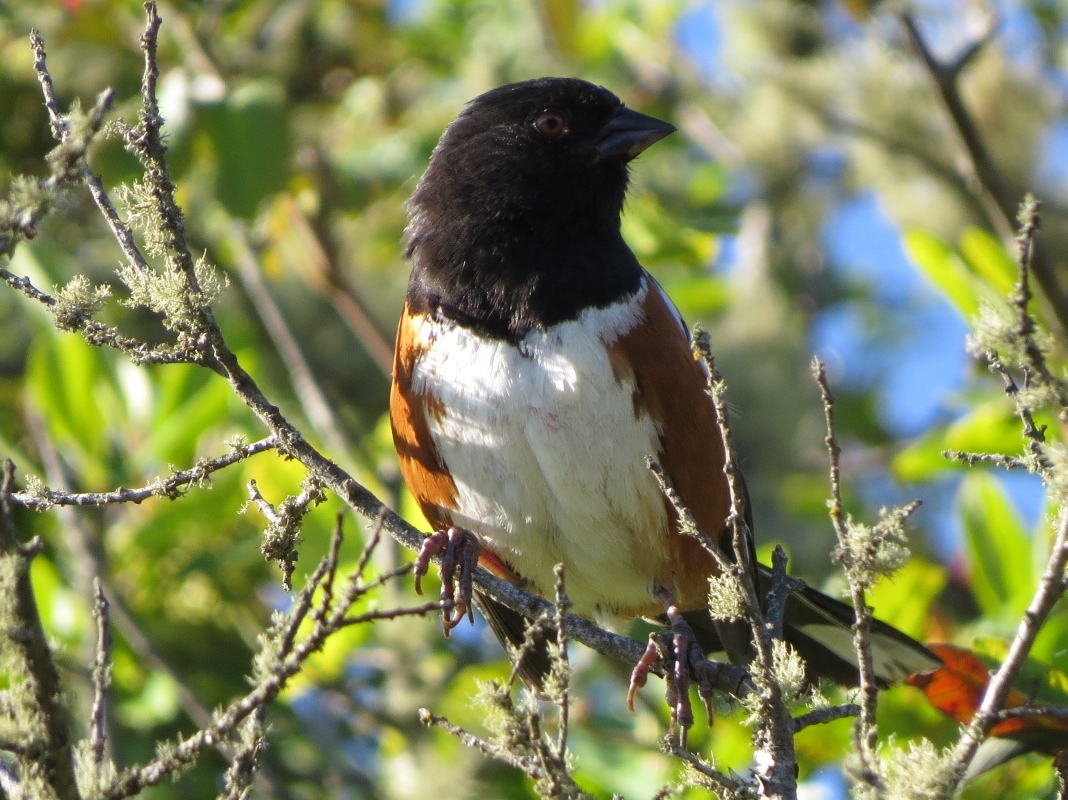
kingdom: Animalia
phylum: Chordata
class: Aves
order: Passeriformes
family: Passerellidae
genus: Pipilo
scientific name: Pipilo maculatus
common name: Spotted towhee
